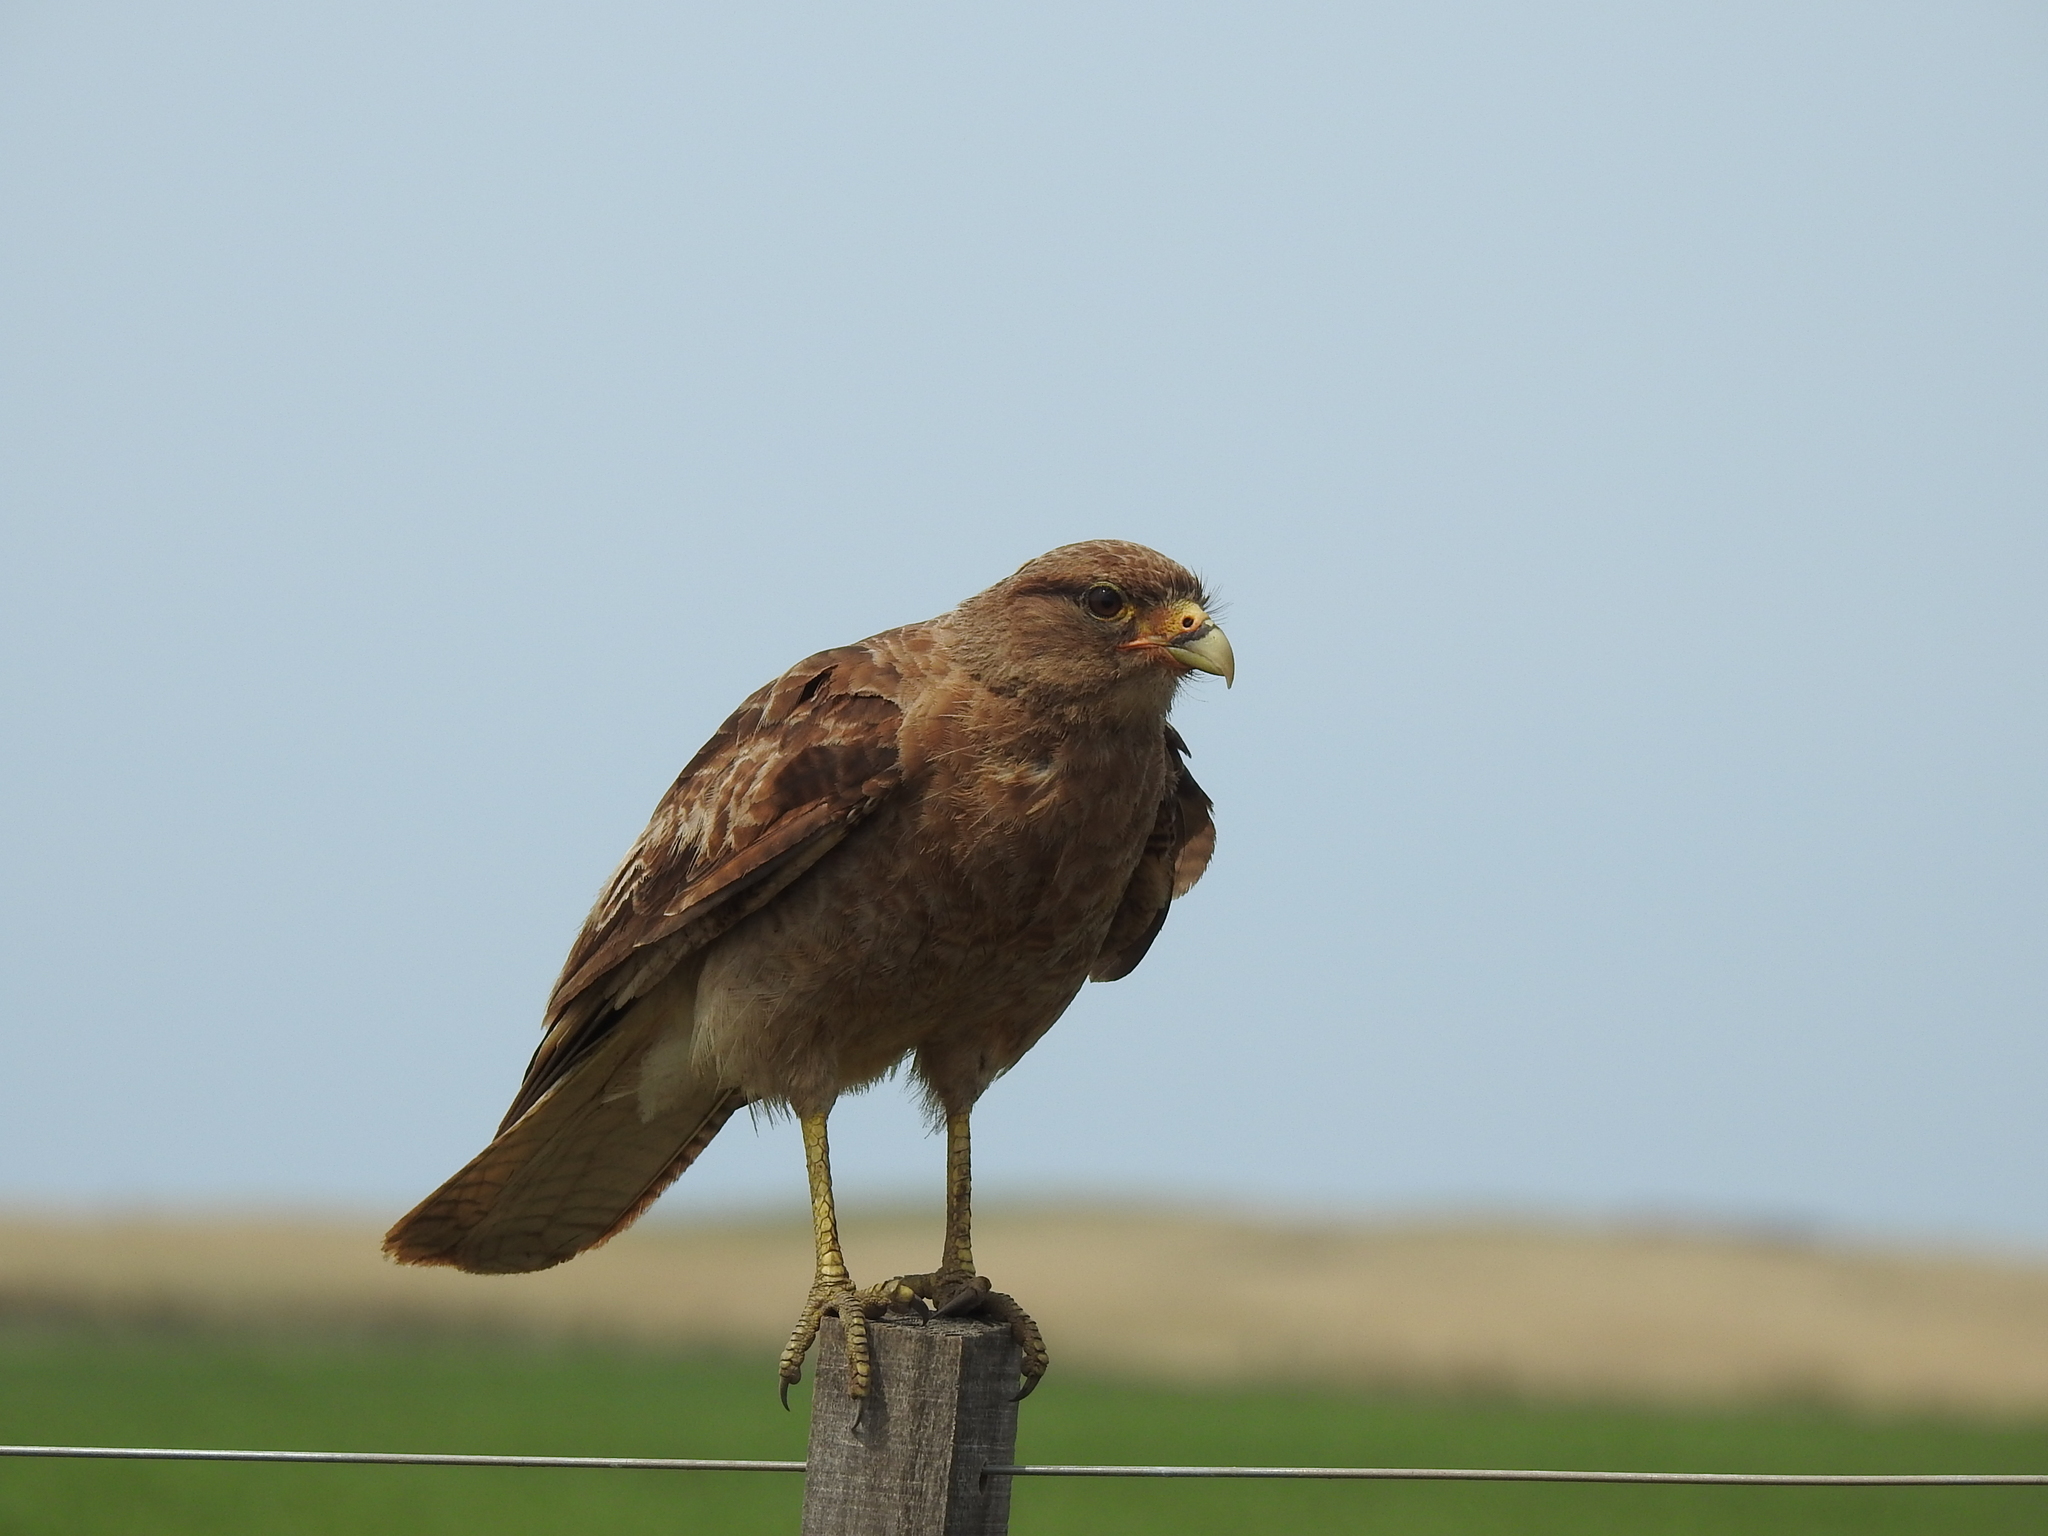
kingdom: Animalia
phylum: Chordata
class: Aves
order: Falconiformes
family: Falconidae
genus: Daptrius
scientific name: Daptrius
